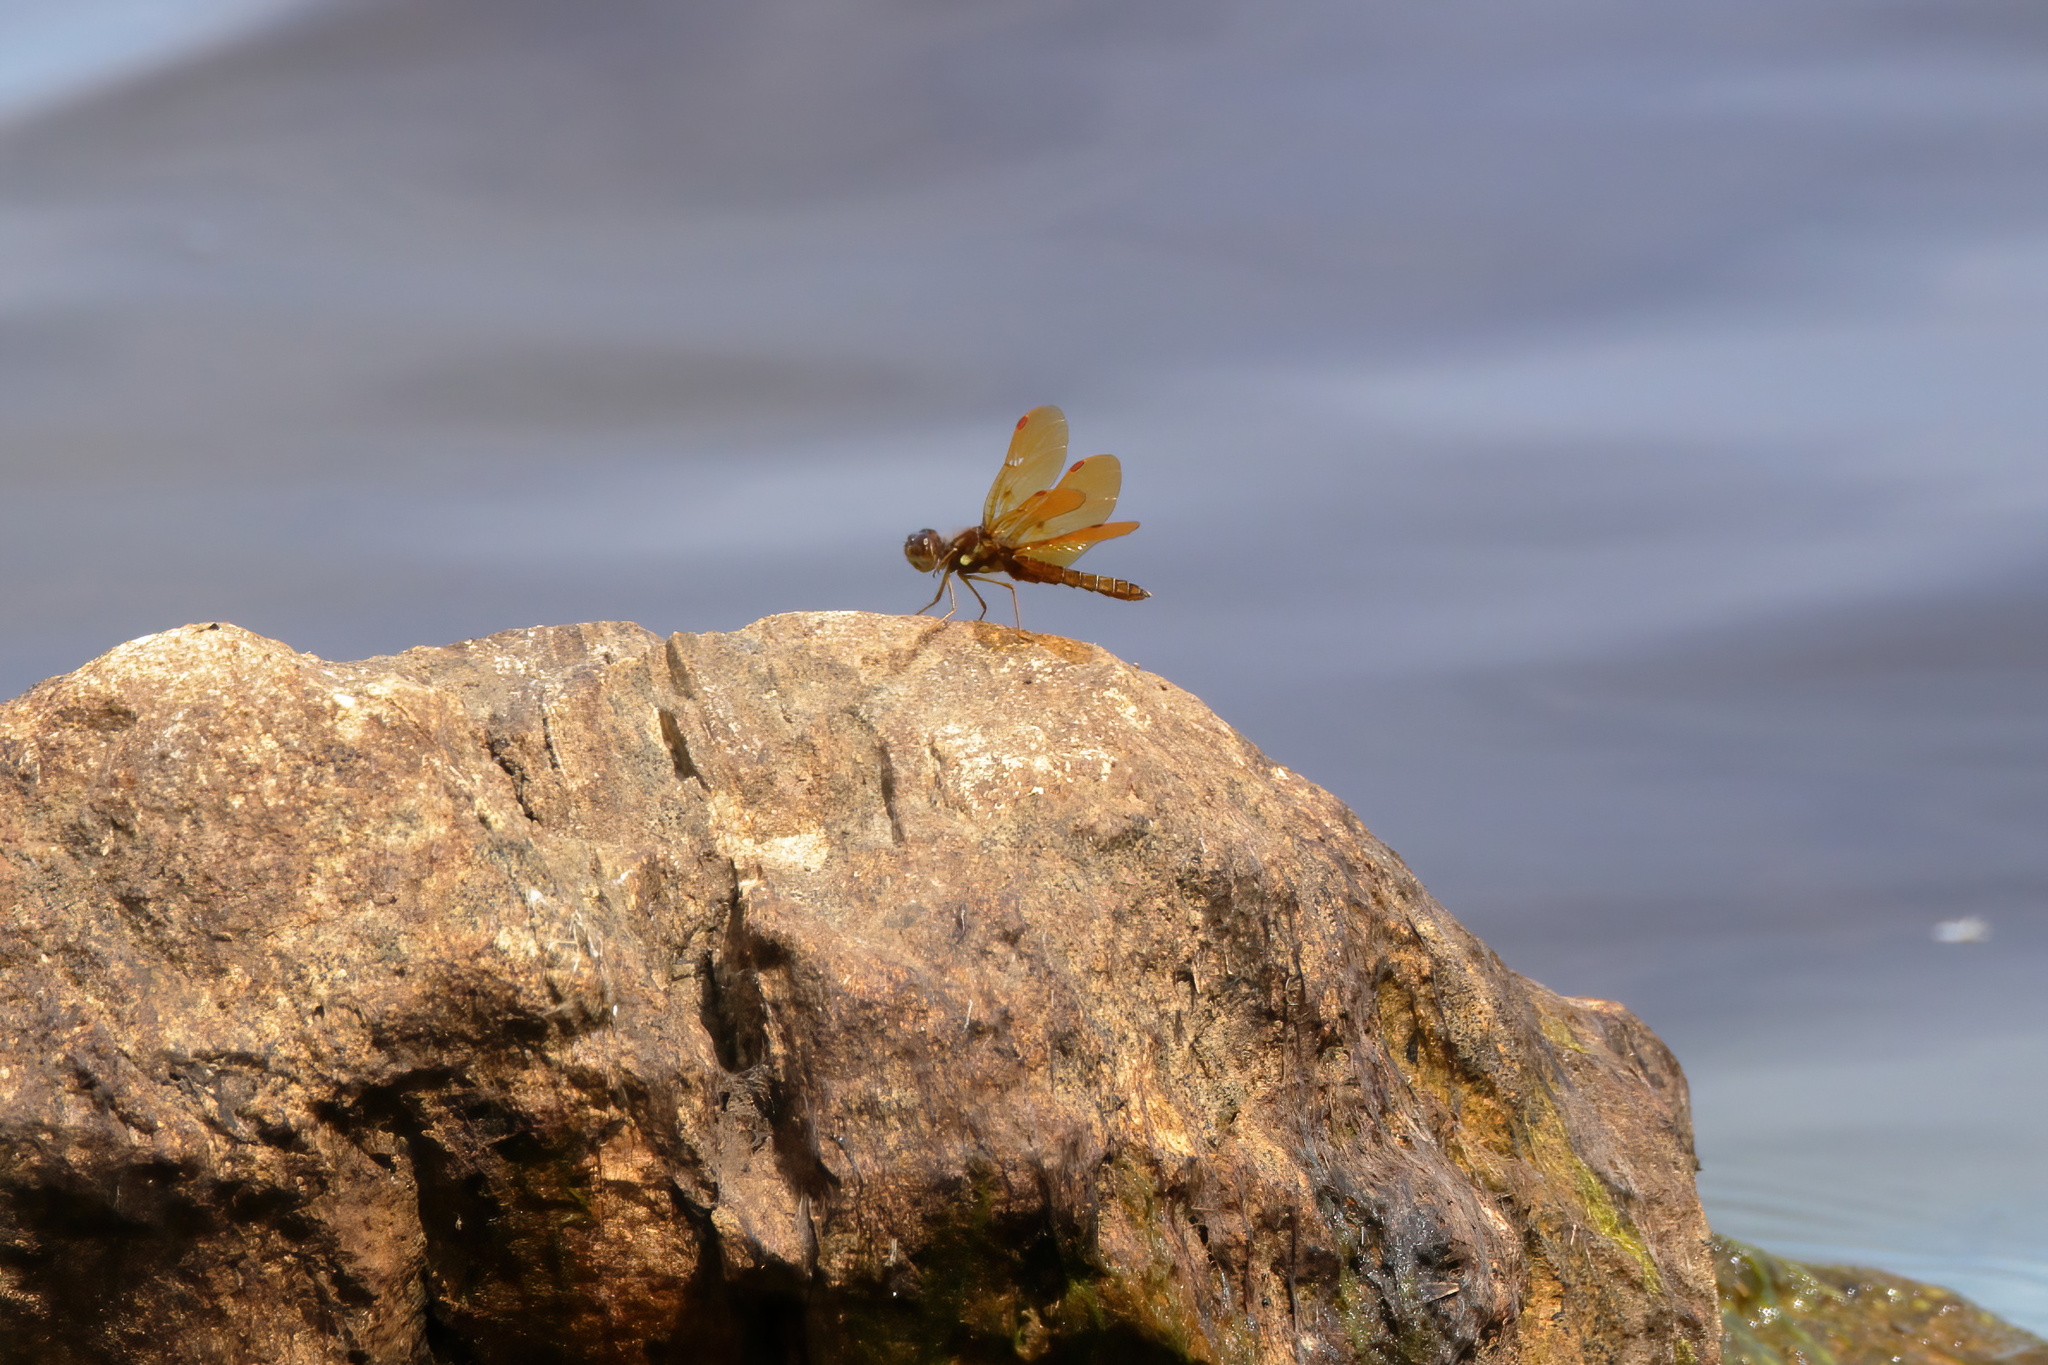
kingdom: Animalia
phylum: Arthropoda
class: Insecta
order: Odonata
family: Libellulidae
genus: Perithemis
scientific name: Perithemis tenera
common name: Eastern amberwing
